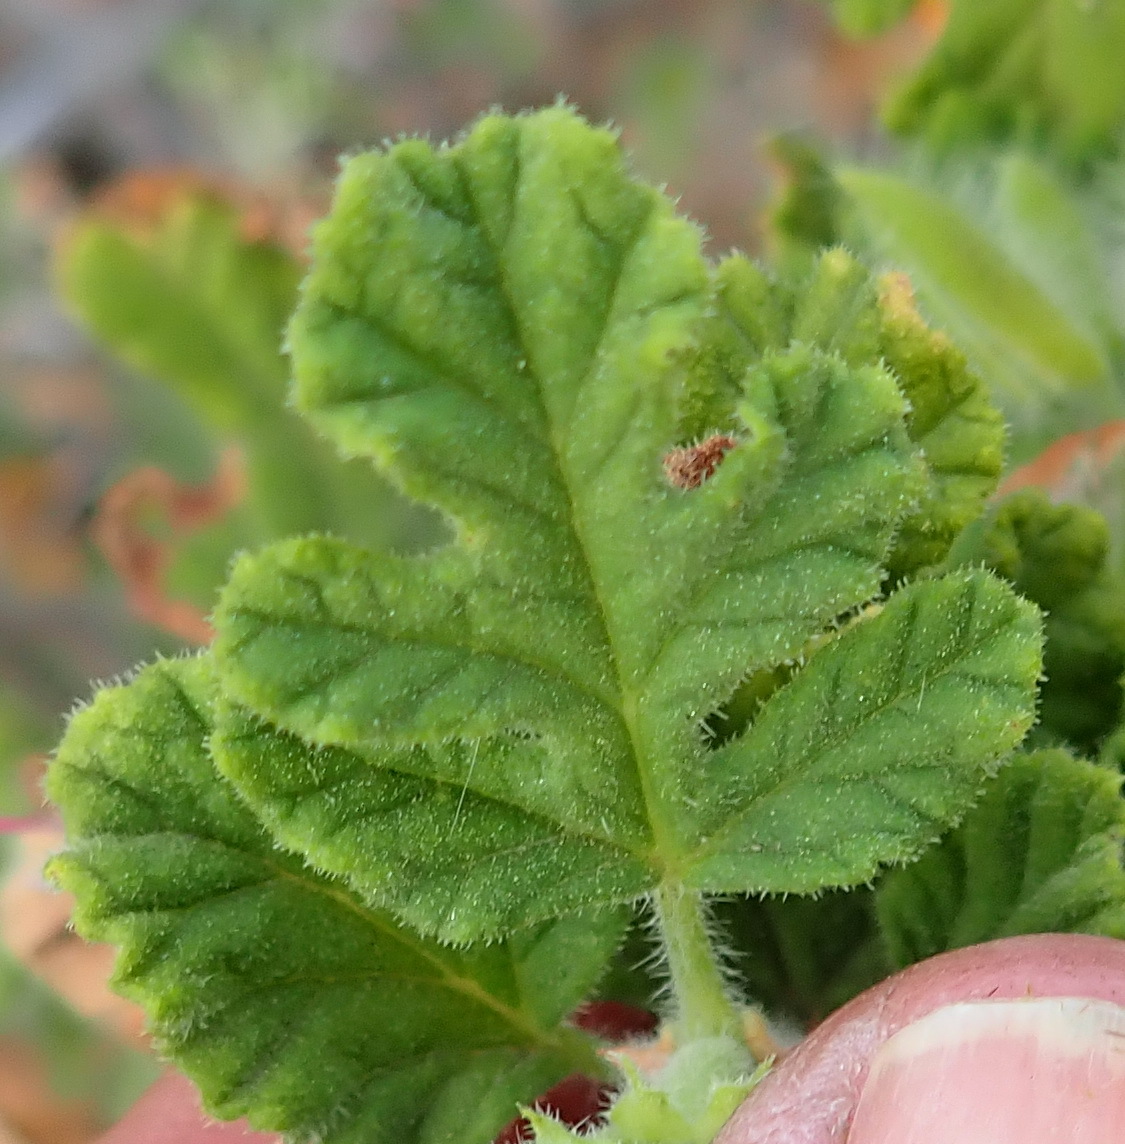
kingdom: Plantae
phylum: Tracheophyta
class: Magnoliopsida
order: Geraniales
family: Geraniaceae
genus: Pelargonium
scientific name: Pelargonium panduriforme
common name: Oakleaf garden geranium
